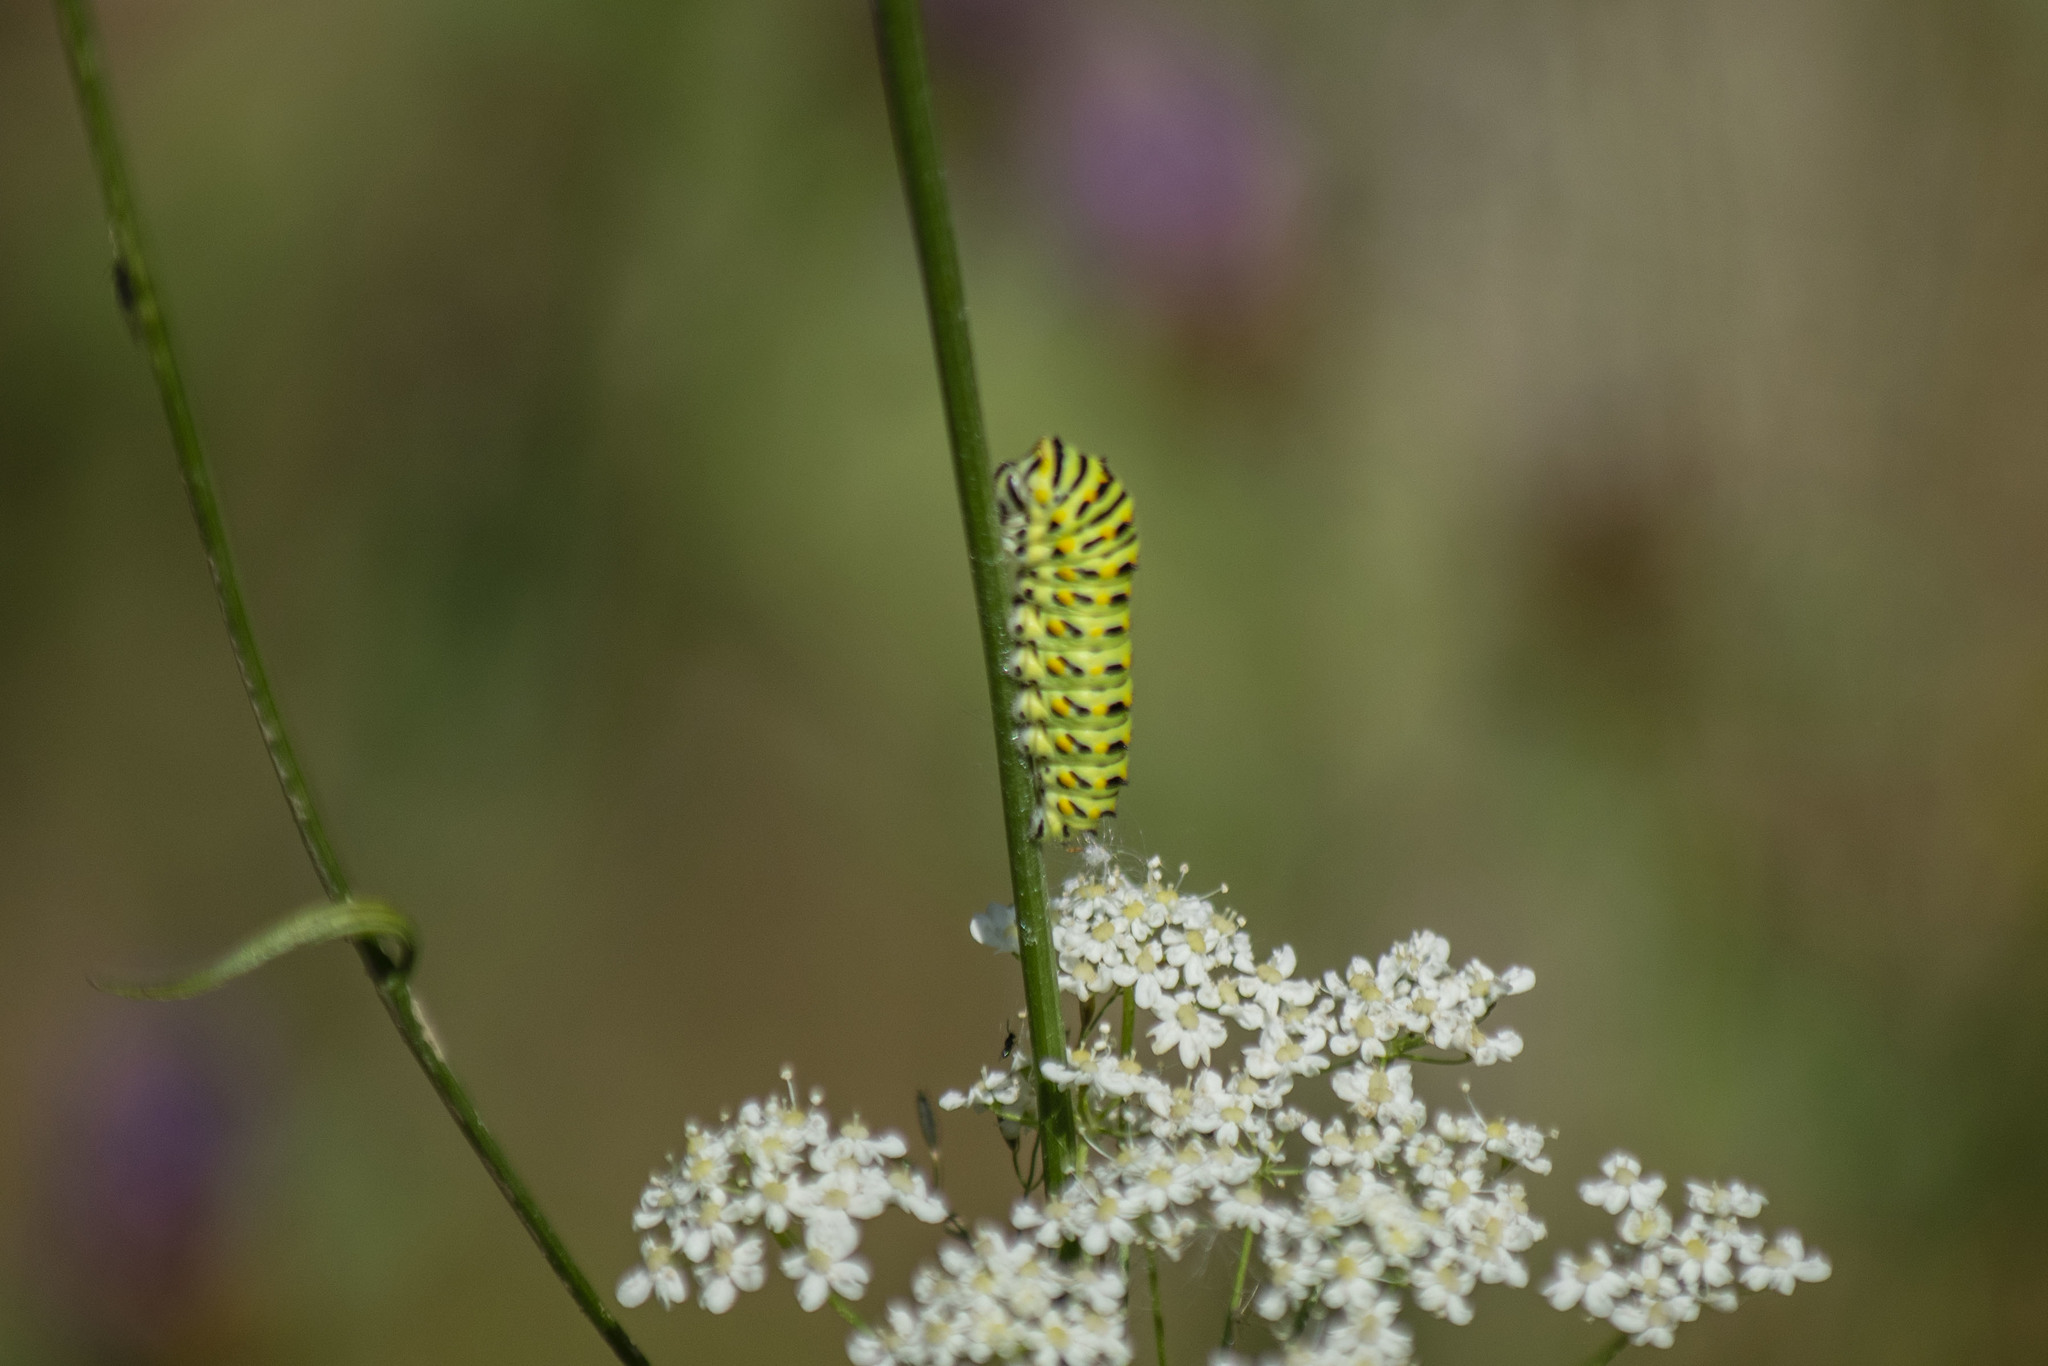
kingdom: Animalia
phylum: Arthropoda
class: Insecta
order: Lepidoptera
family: Papilionidae
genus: Papilio
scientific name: Papilio machaon
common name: Swallowtail
